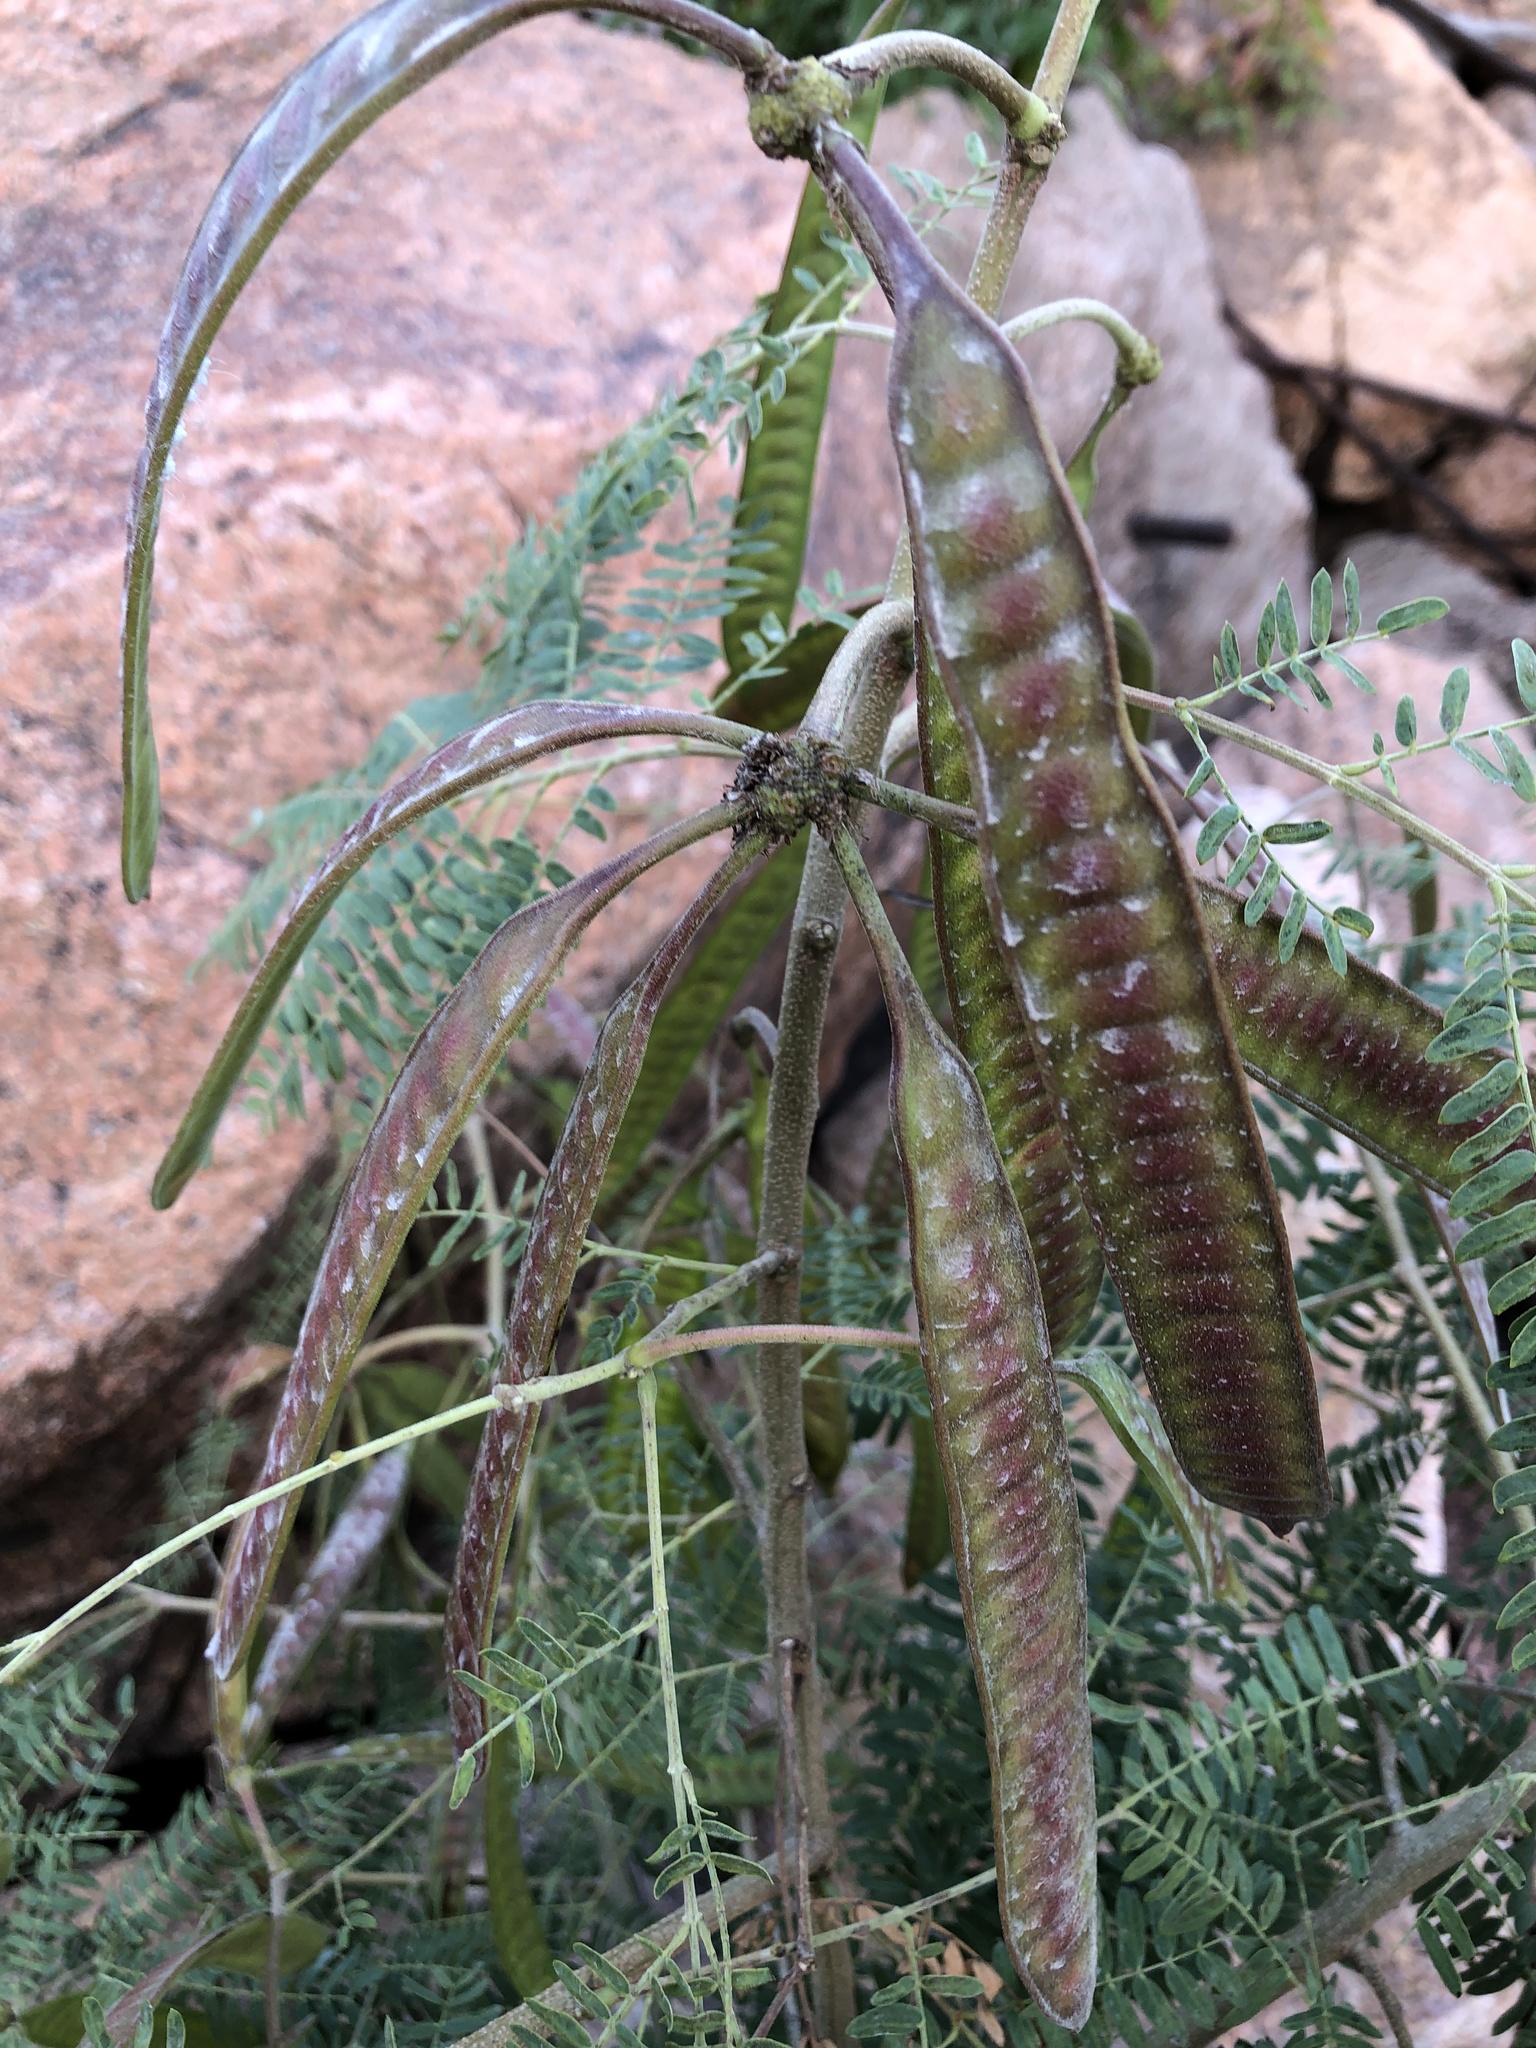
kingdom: Plantae
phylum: Tracheophyta
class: Magnoliopsida
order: Fabales
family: Fabaceae
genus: Leucaena
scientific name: Leucaena leucocephala
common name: White leadtree
